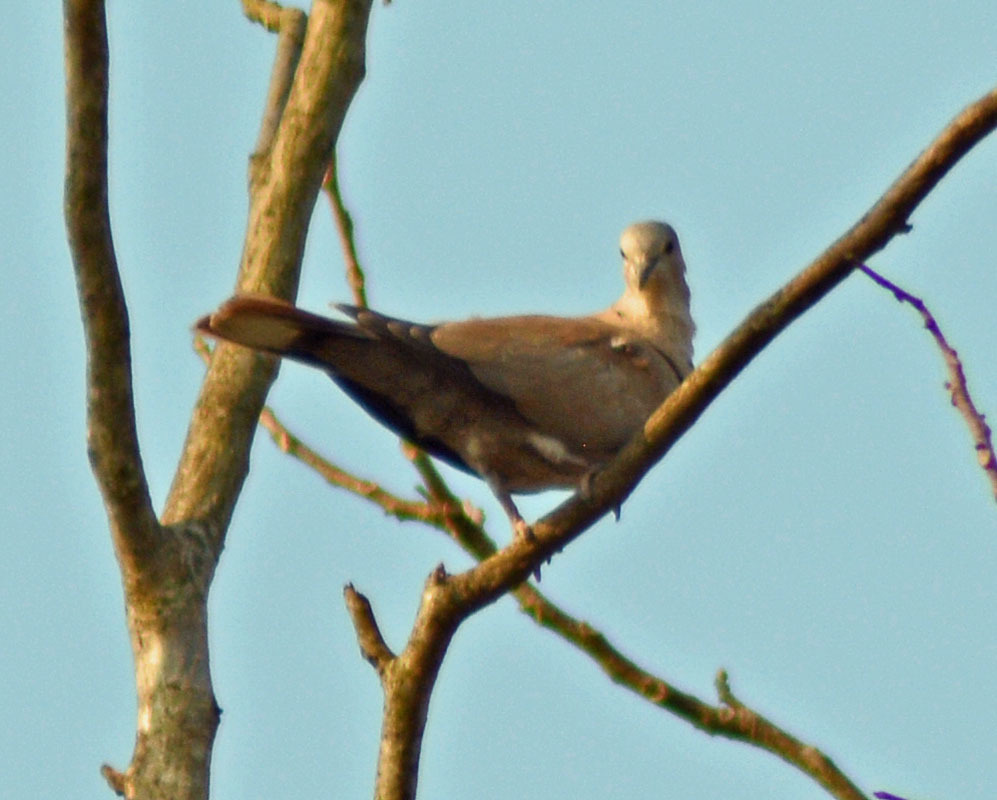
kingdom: Animalia
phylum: Chordata
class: Aves
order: Columbiformes
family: Columbidae
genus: Streptopelia
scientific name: Streptopelia decaocto
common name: Eurasian collared dove
